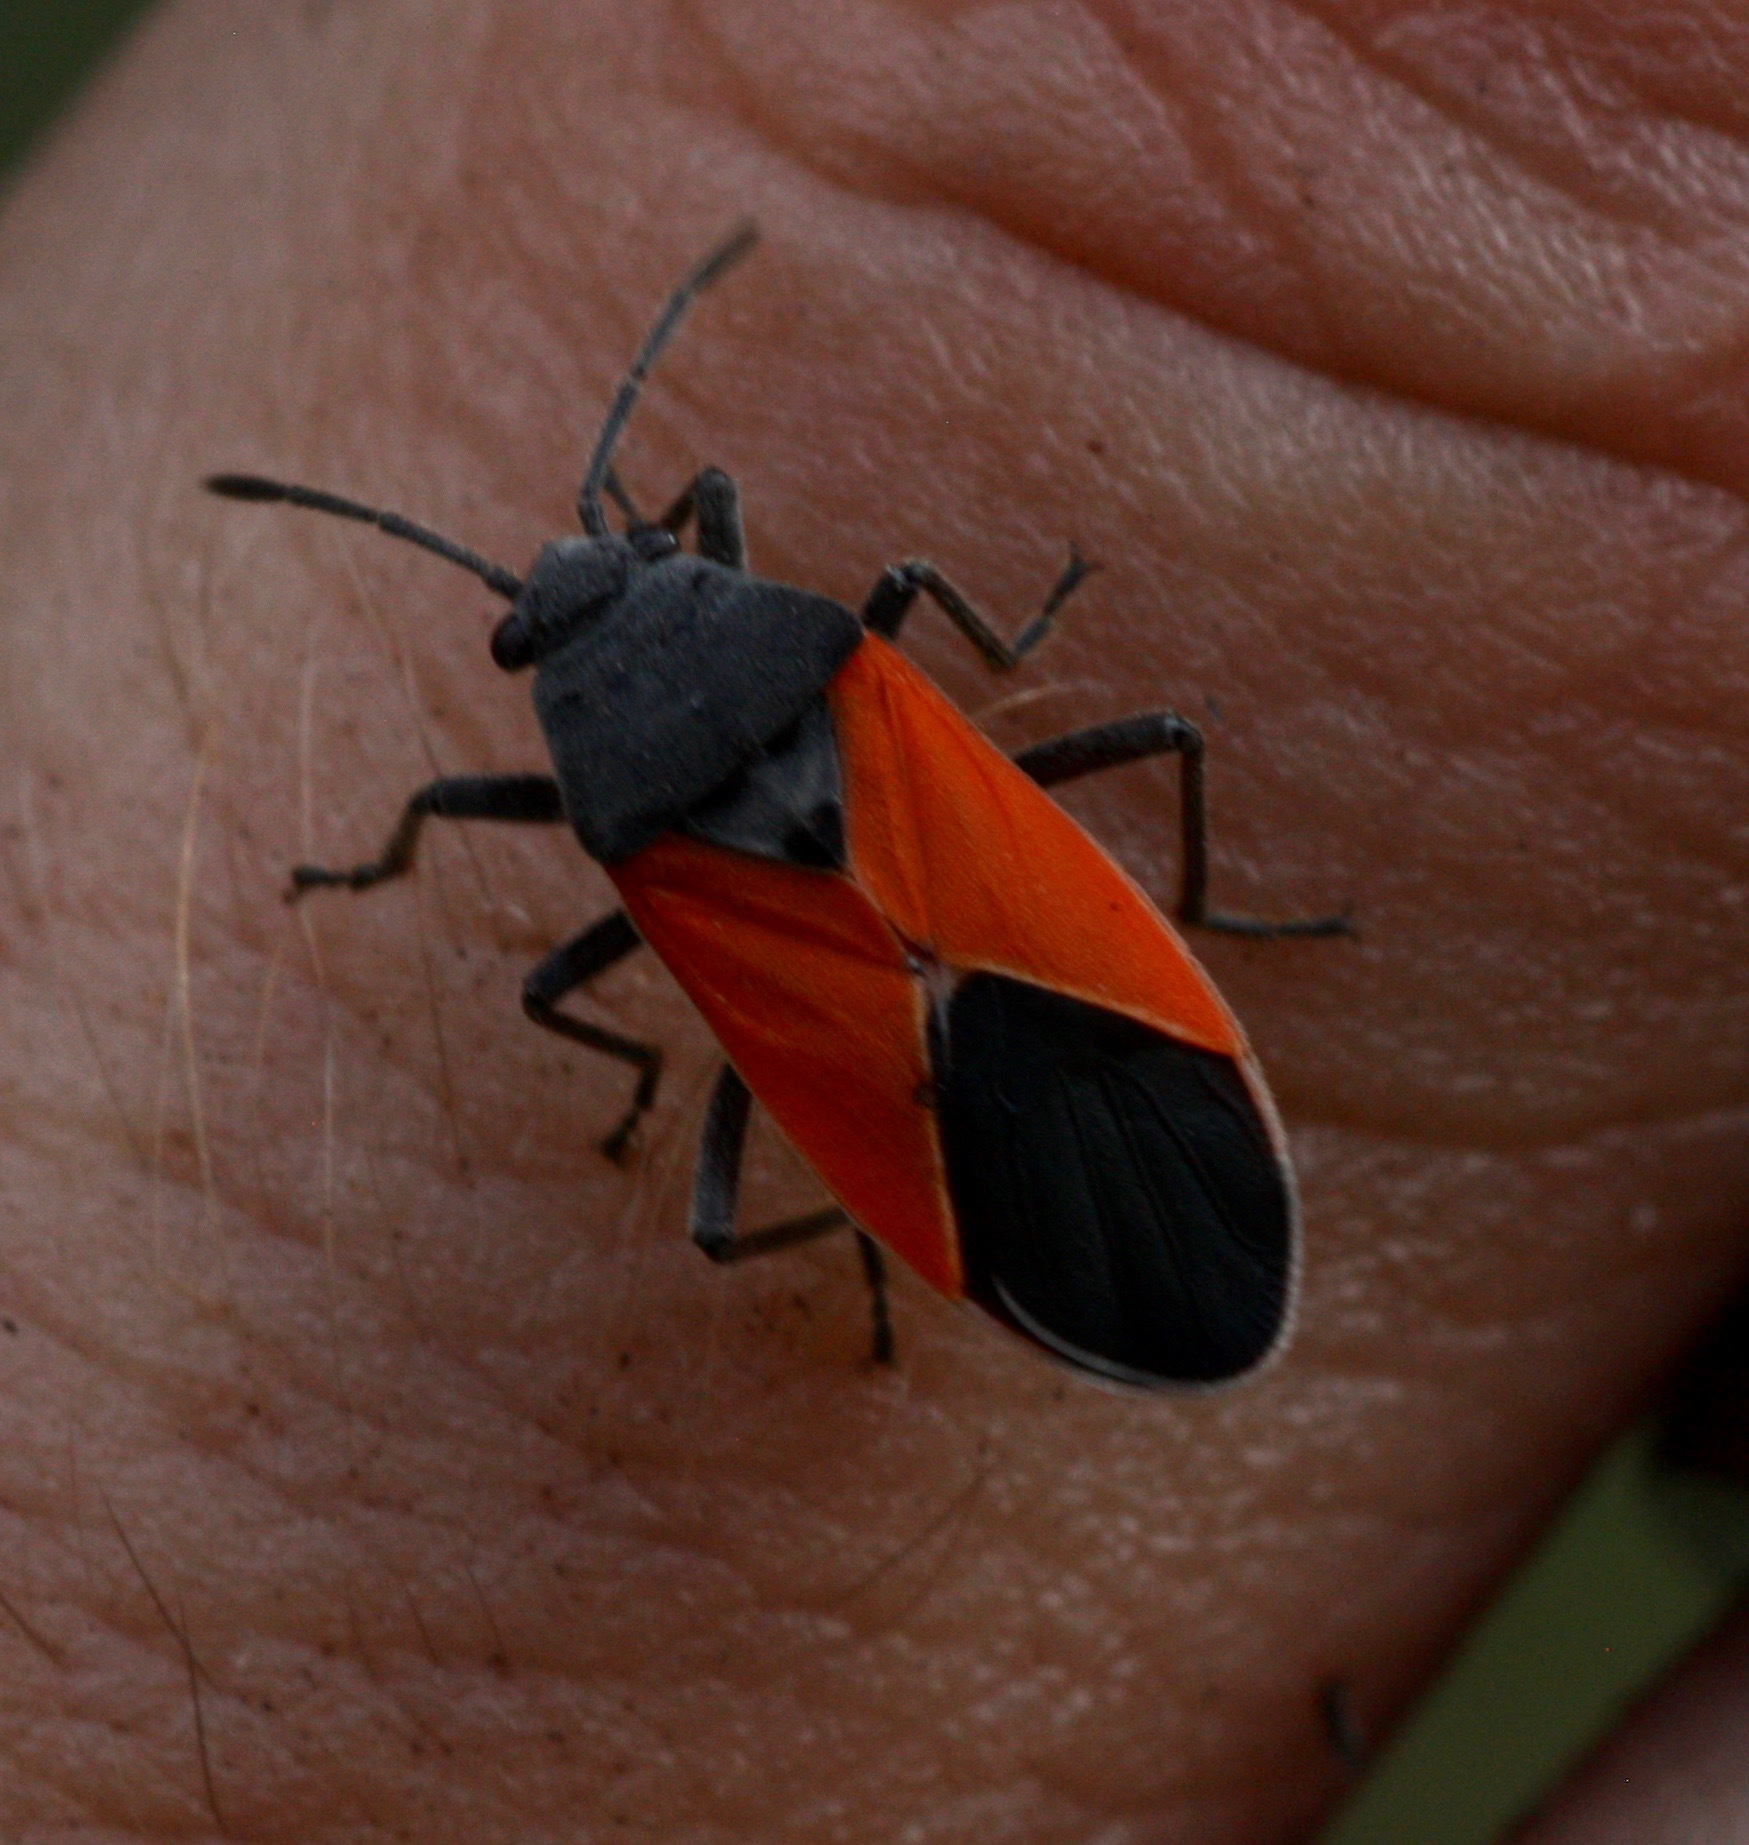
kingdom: Animalia
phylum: Arthropoda
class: Insecta
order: Hemiptera
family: Lygaeidae
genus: Melanopleurus
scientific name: Melanopleurus belfragei
